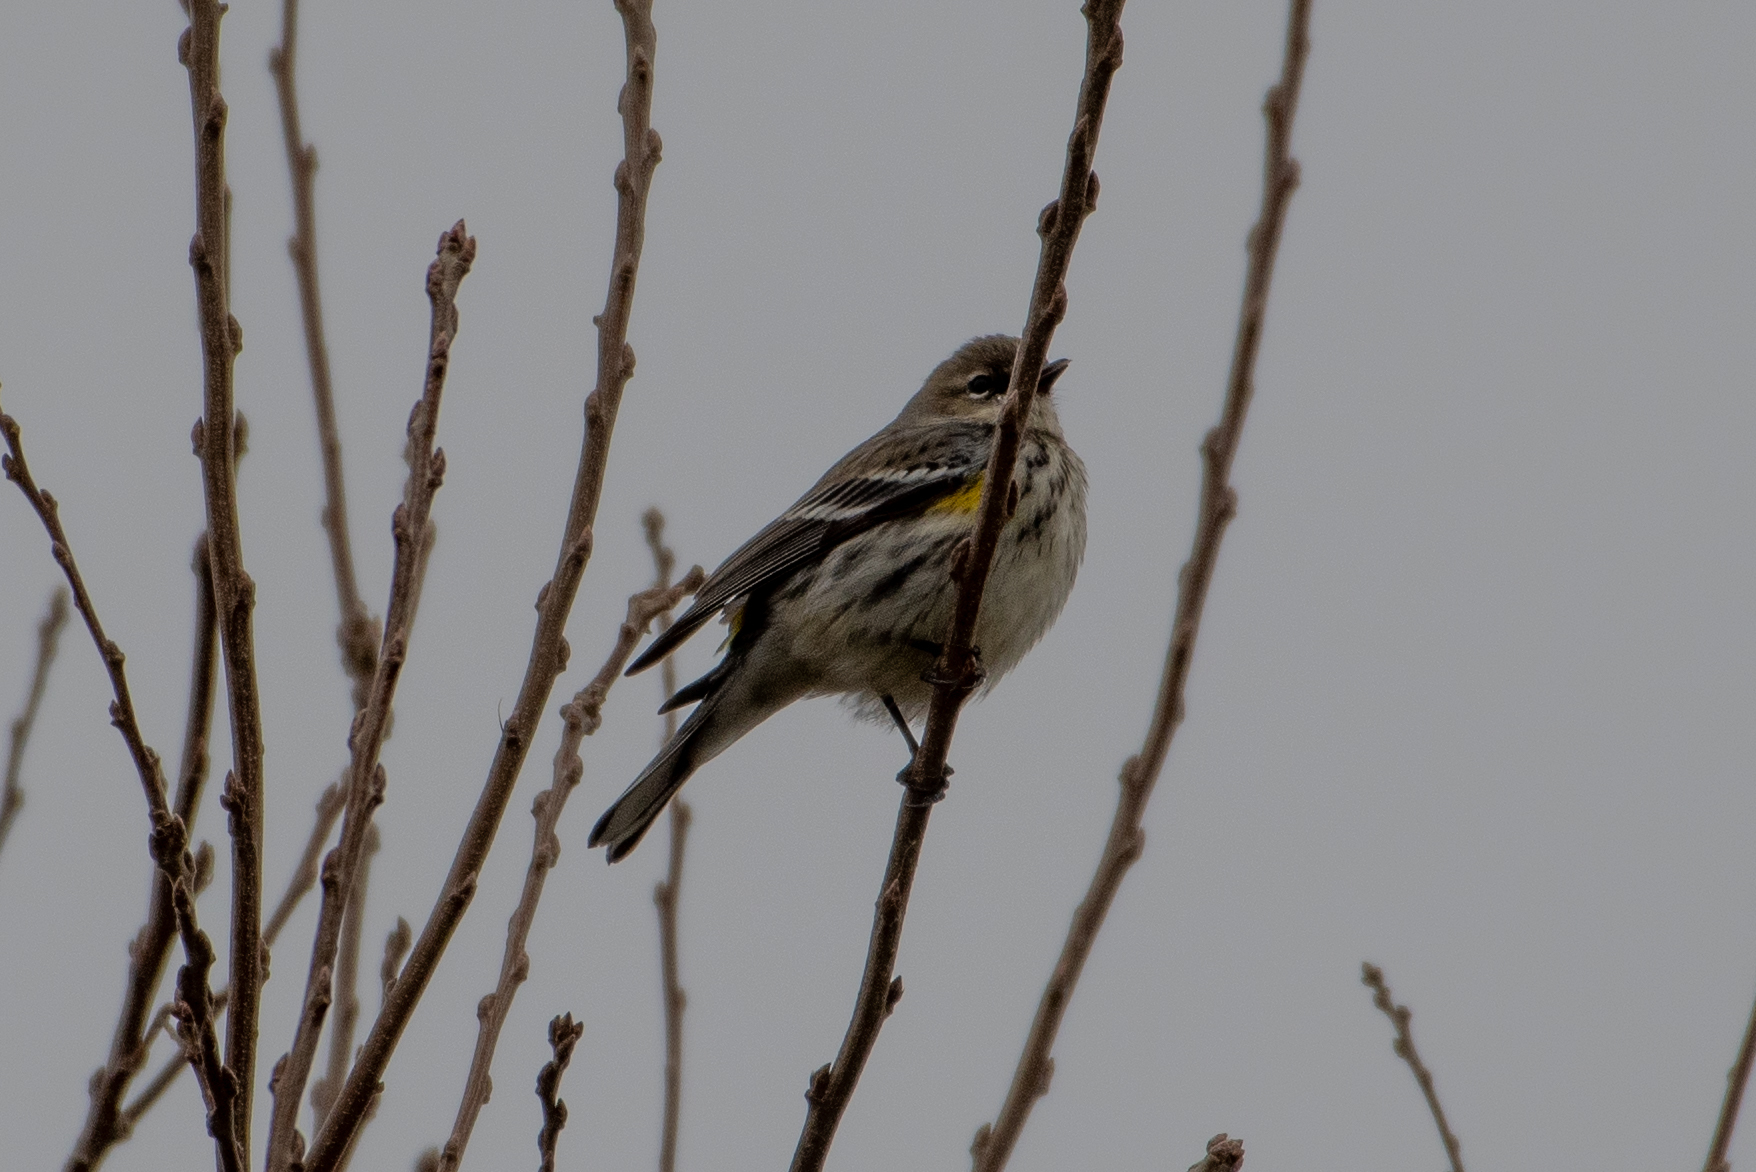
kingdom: Animalia
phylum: Chordata
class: Aves
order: Passeriformes
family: Parulidae
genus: Setophaga
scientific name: Setophaga coronata
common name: Myrtle warbler
